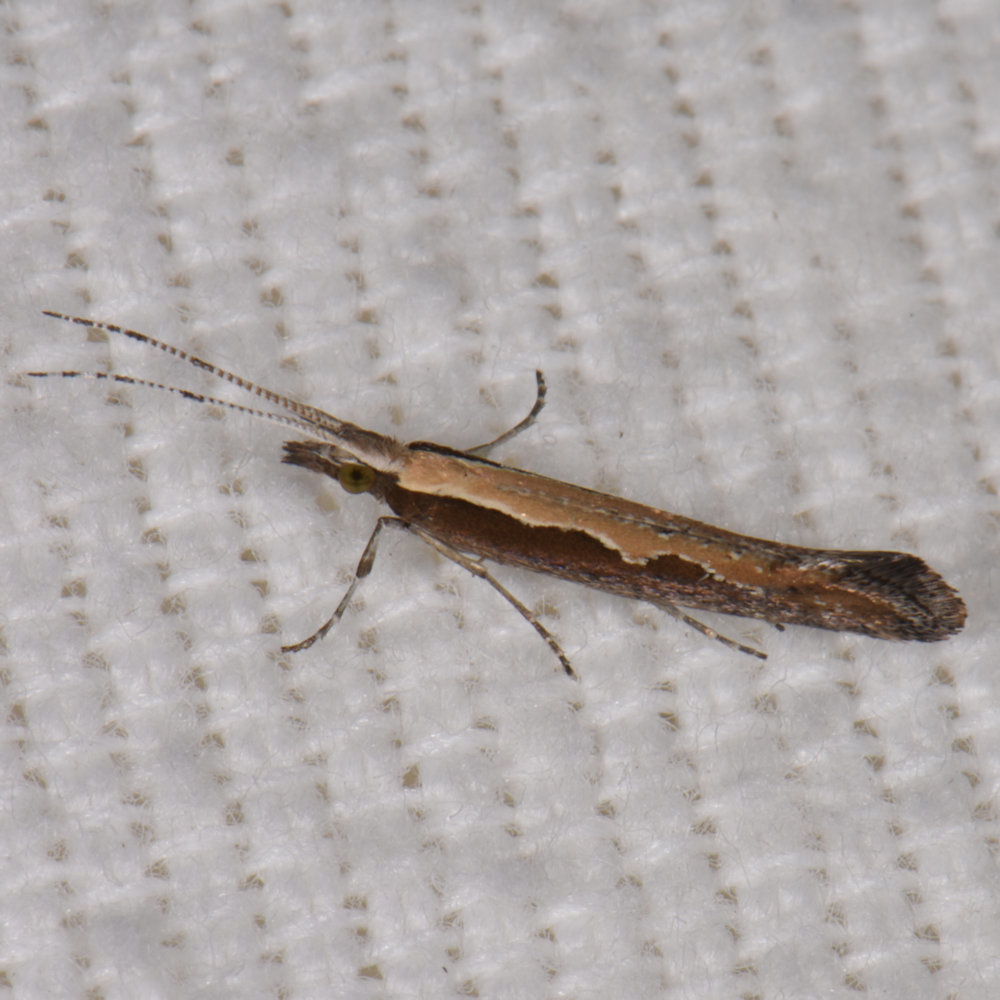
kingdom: Animalia
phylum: Arthropoda
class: Insecta
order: Lepidoptera
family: Plutellidae
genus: Plutella
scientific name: Plutella xylostella
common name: Diamond-back moth
